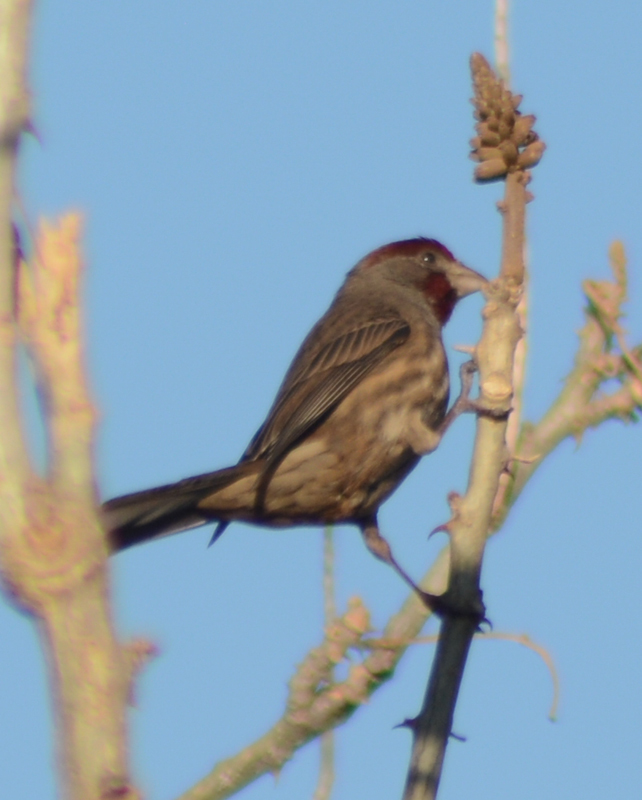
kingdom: Animalia
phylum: Chordata
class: Aves
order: Passeriformes
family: Fringillidae
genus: Haemorhous
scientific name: Haemorhous mexicanus
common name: House finch
